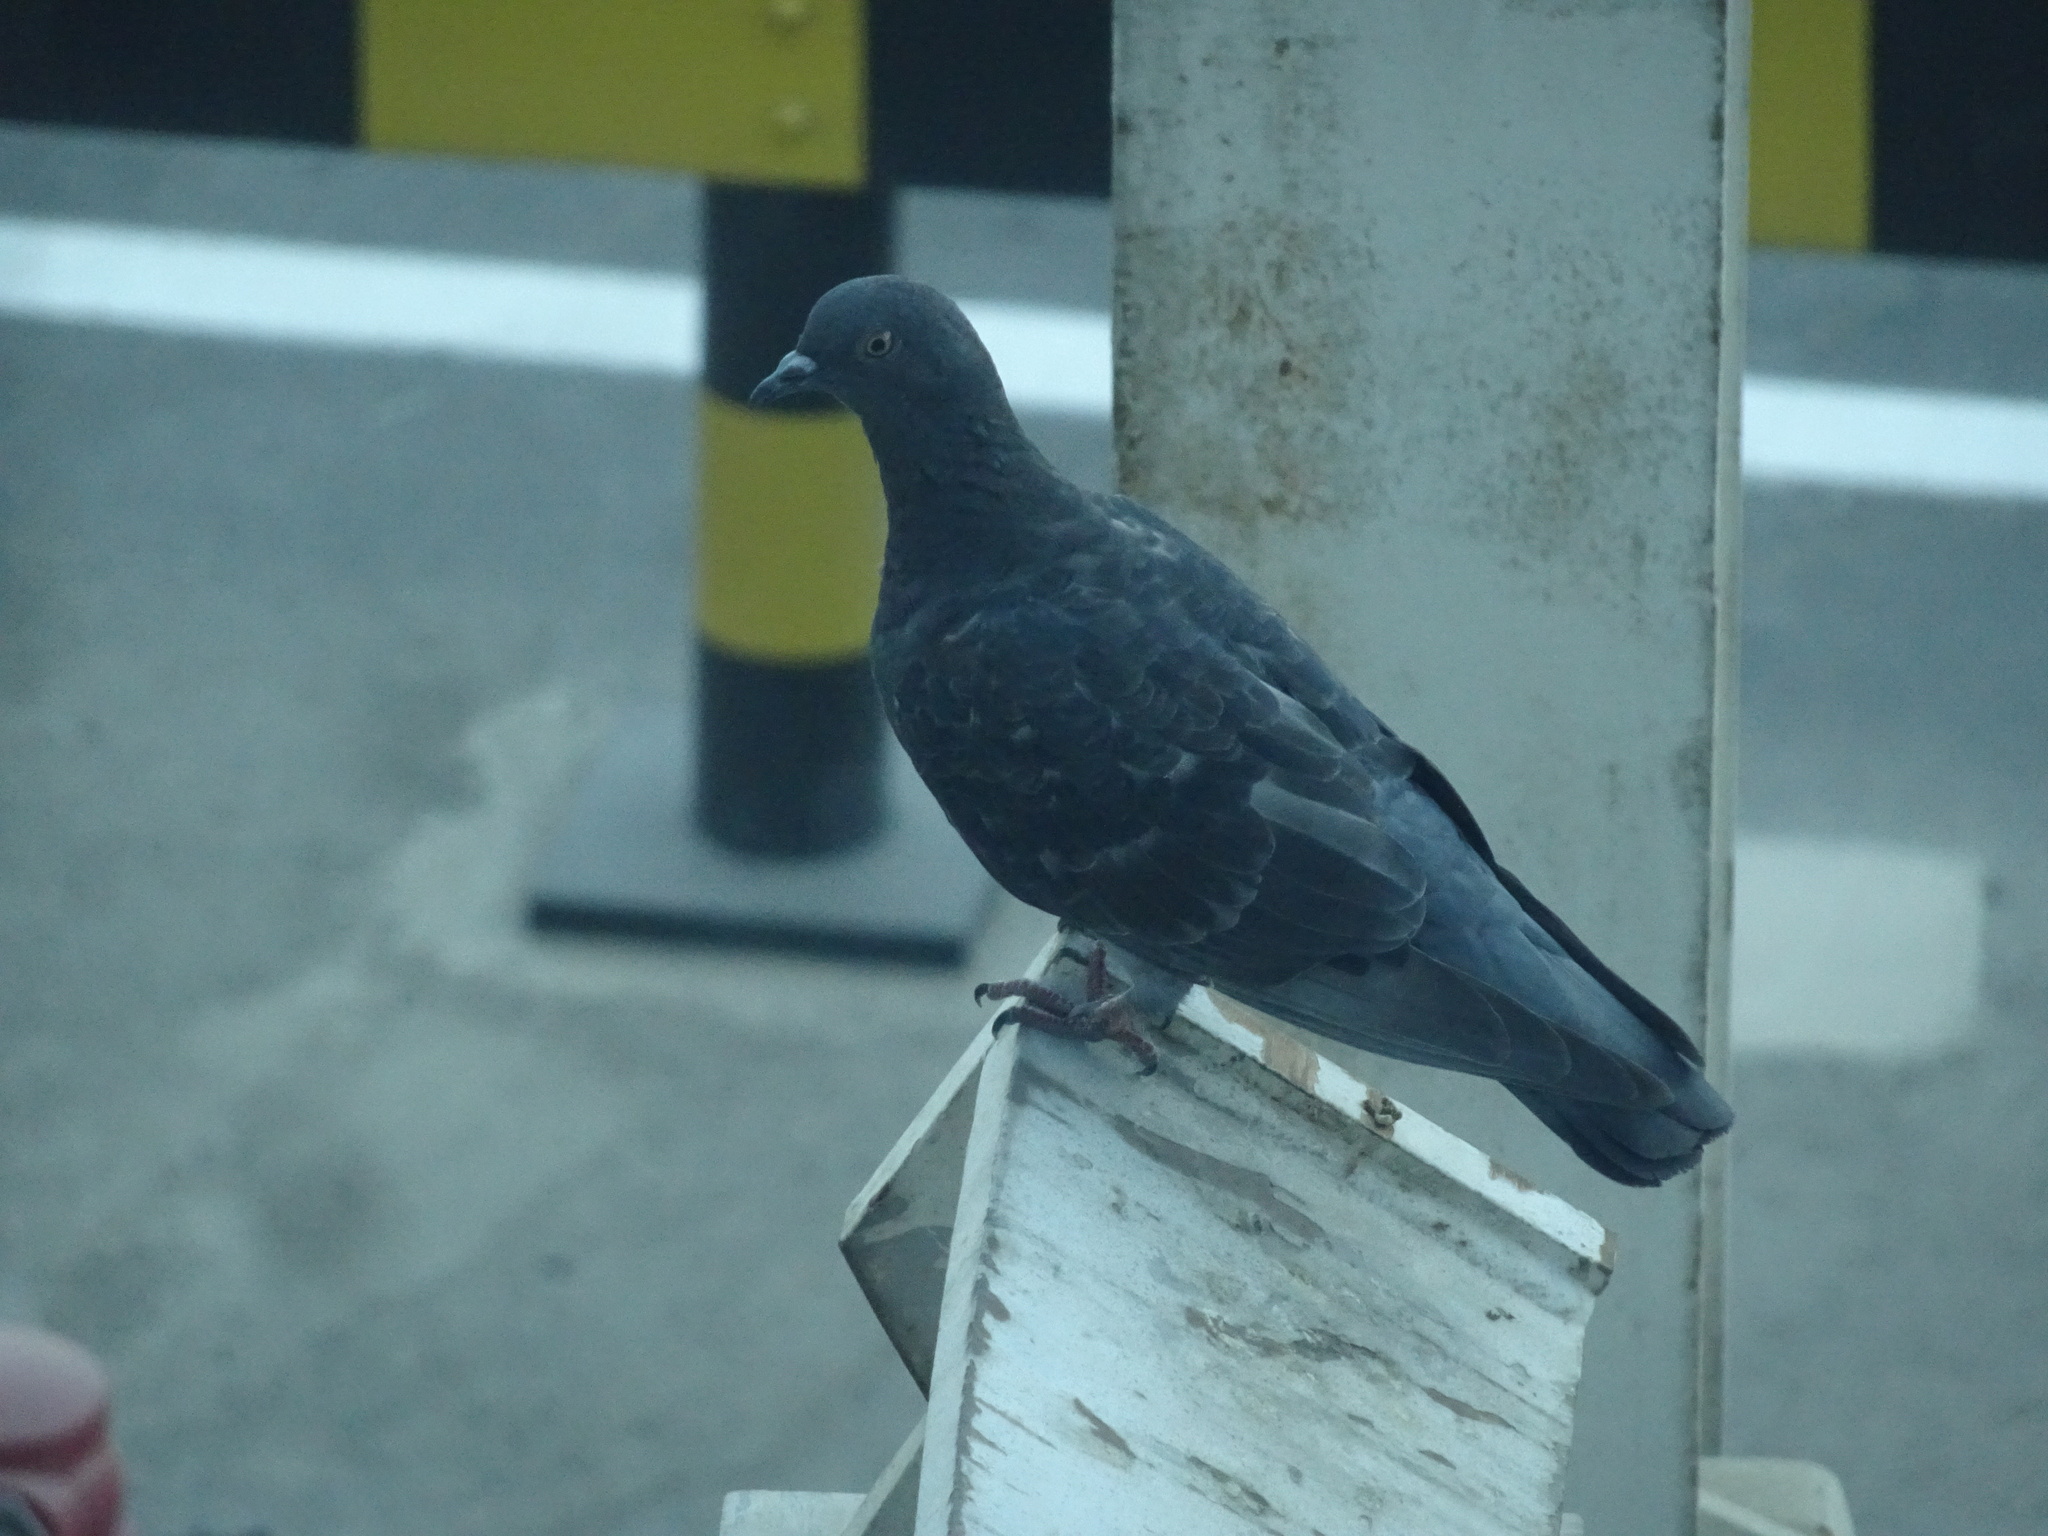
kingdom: Animalia
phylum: Chordata
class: Aves
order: Columbiformes
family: Columbidae
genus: Columba
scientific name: Columba livia
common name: Rock pigeon
